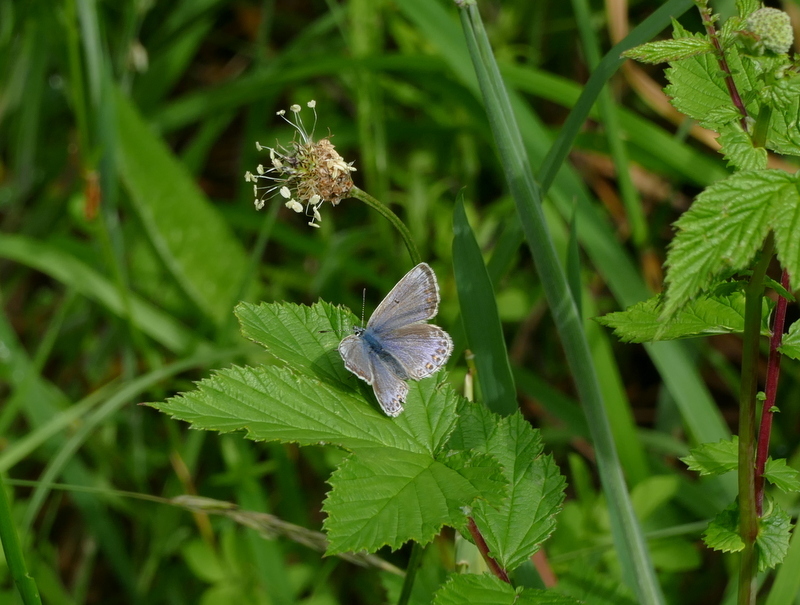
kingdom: Animalia
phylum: Arthropoda
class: Insecta
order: Lepidoptera
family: Lycaenidae
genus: Polyommatus
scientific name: Polyommatus icarus
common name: Common blue
